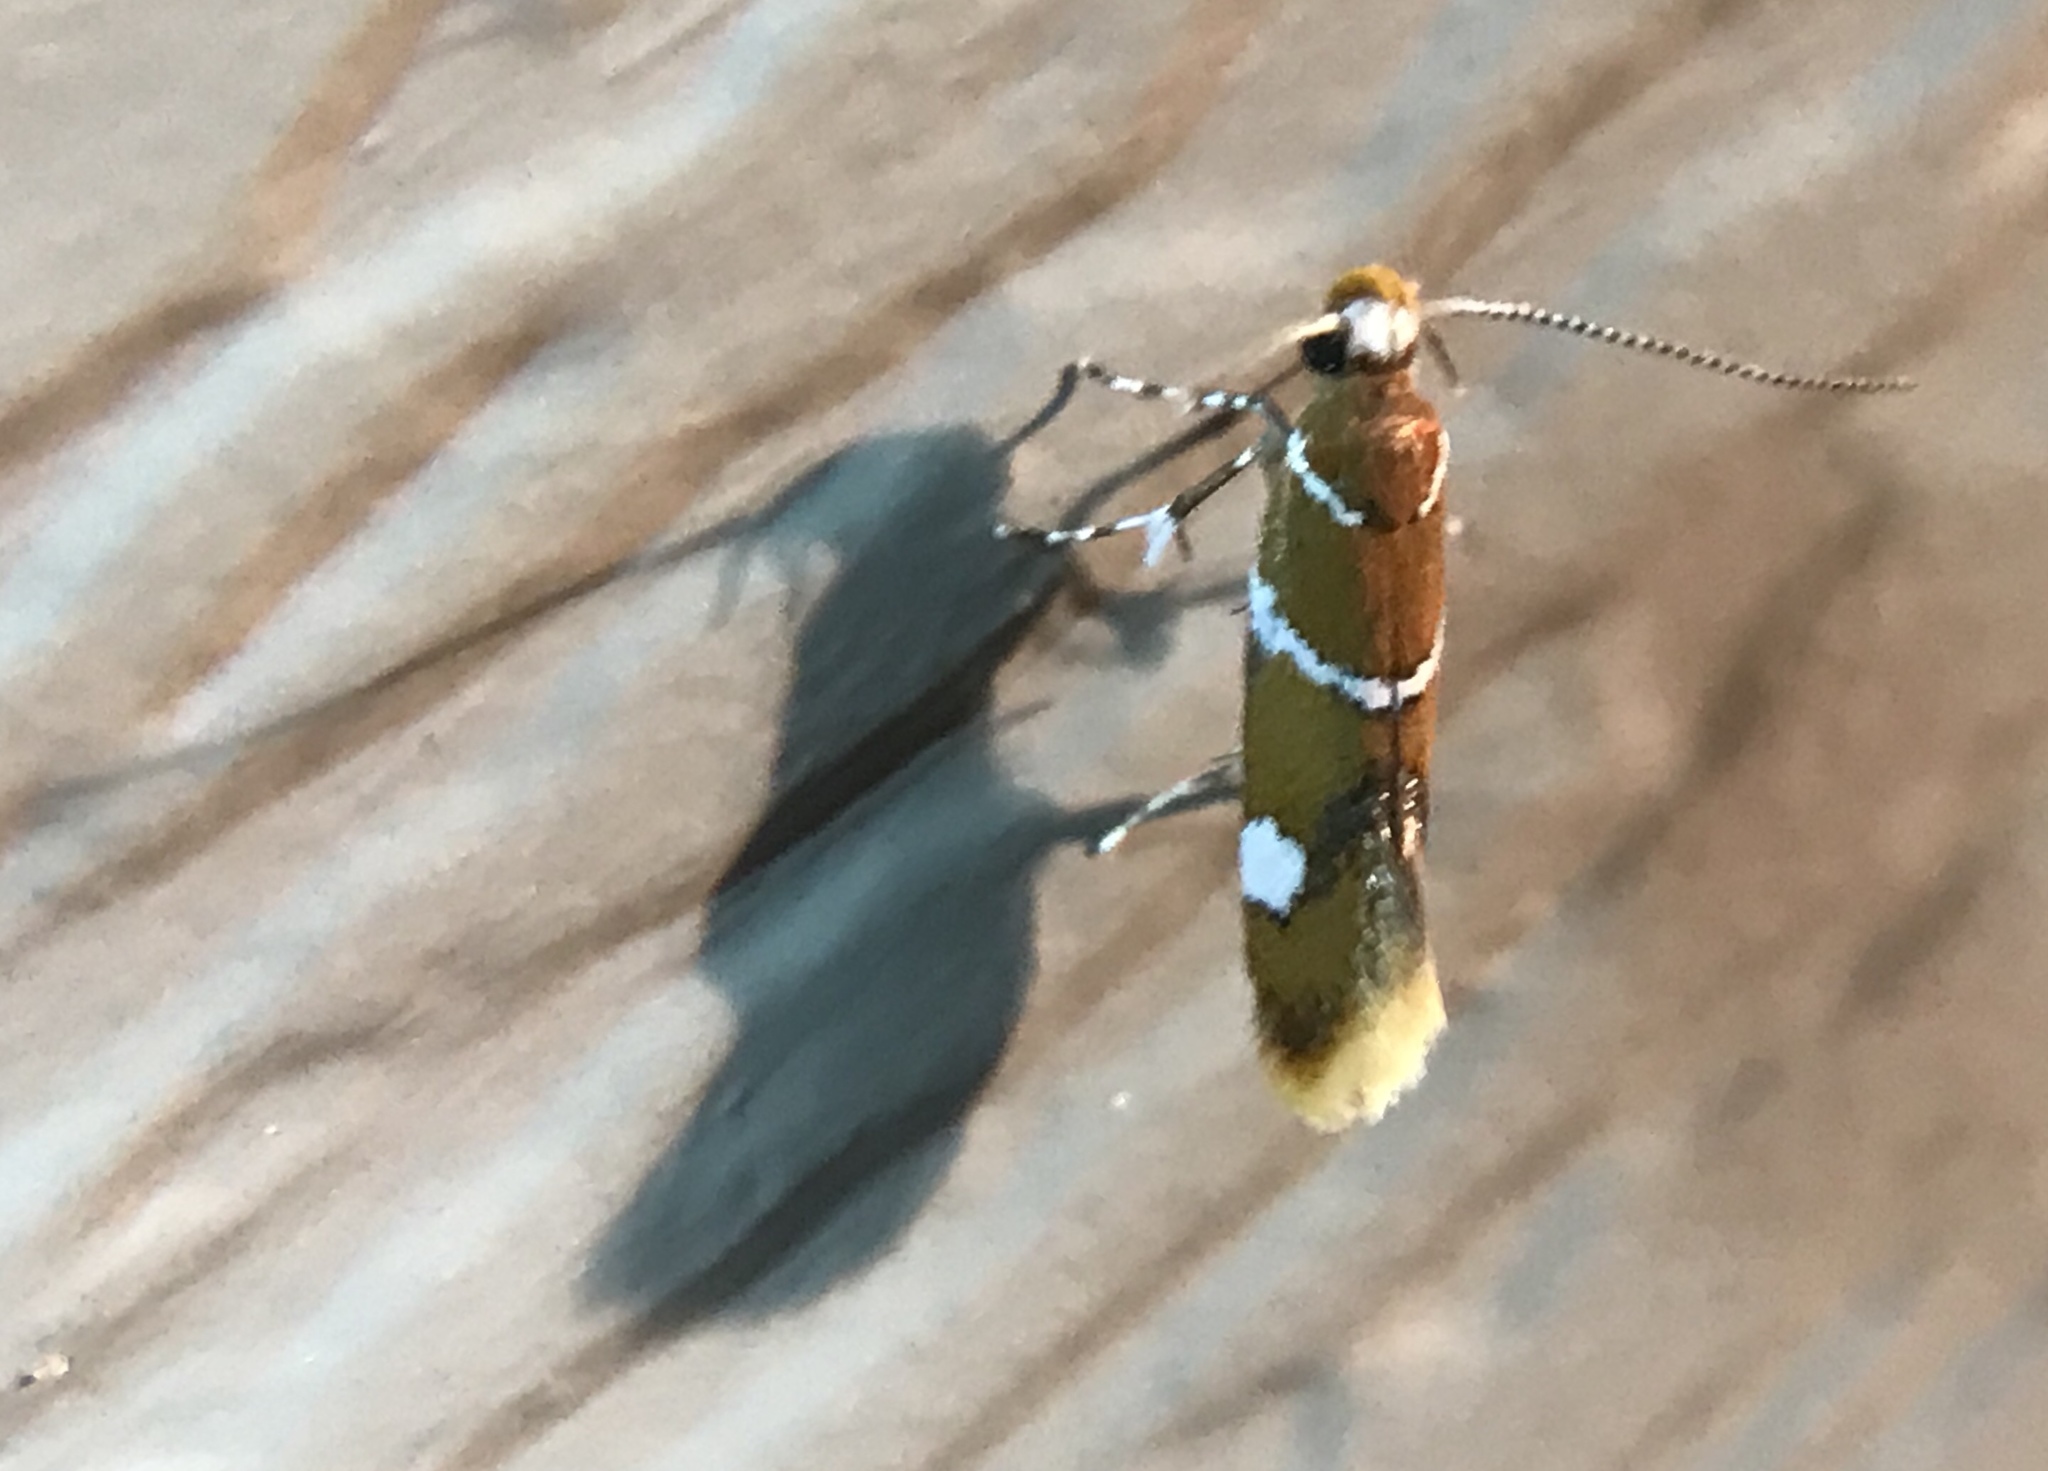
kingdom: Animalia
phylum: Arthropoda
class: Insecta
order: Lepidoptera
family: Oecophoridae
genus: Promalactis
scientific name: Promalactis suzukiella
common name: Moth
